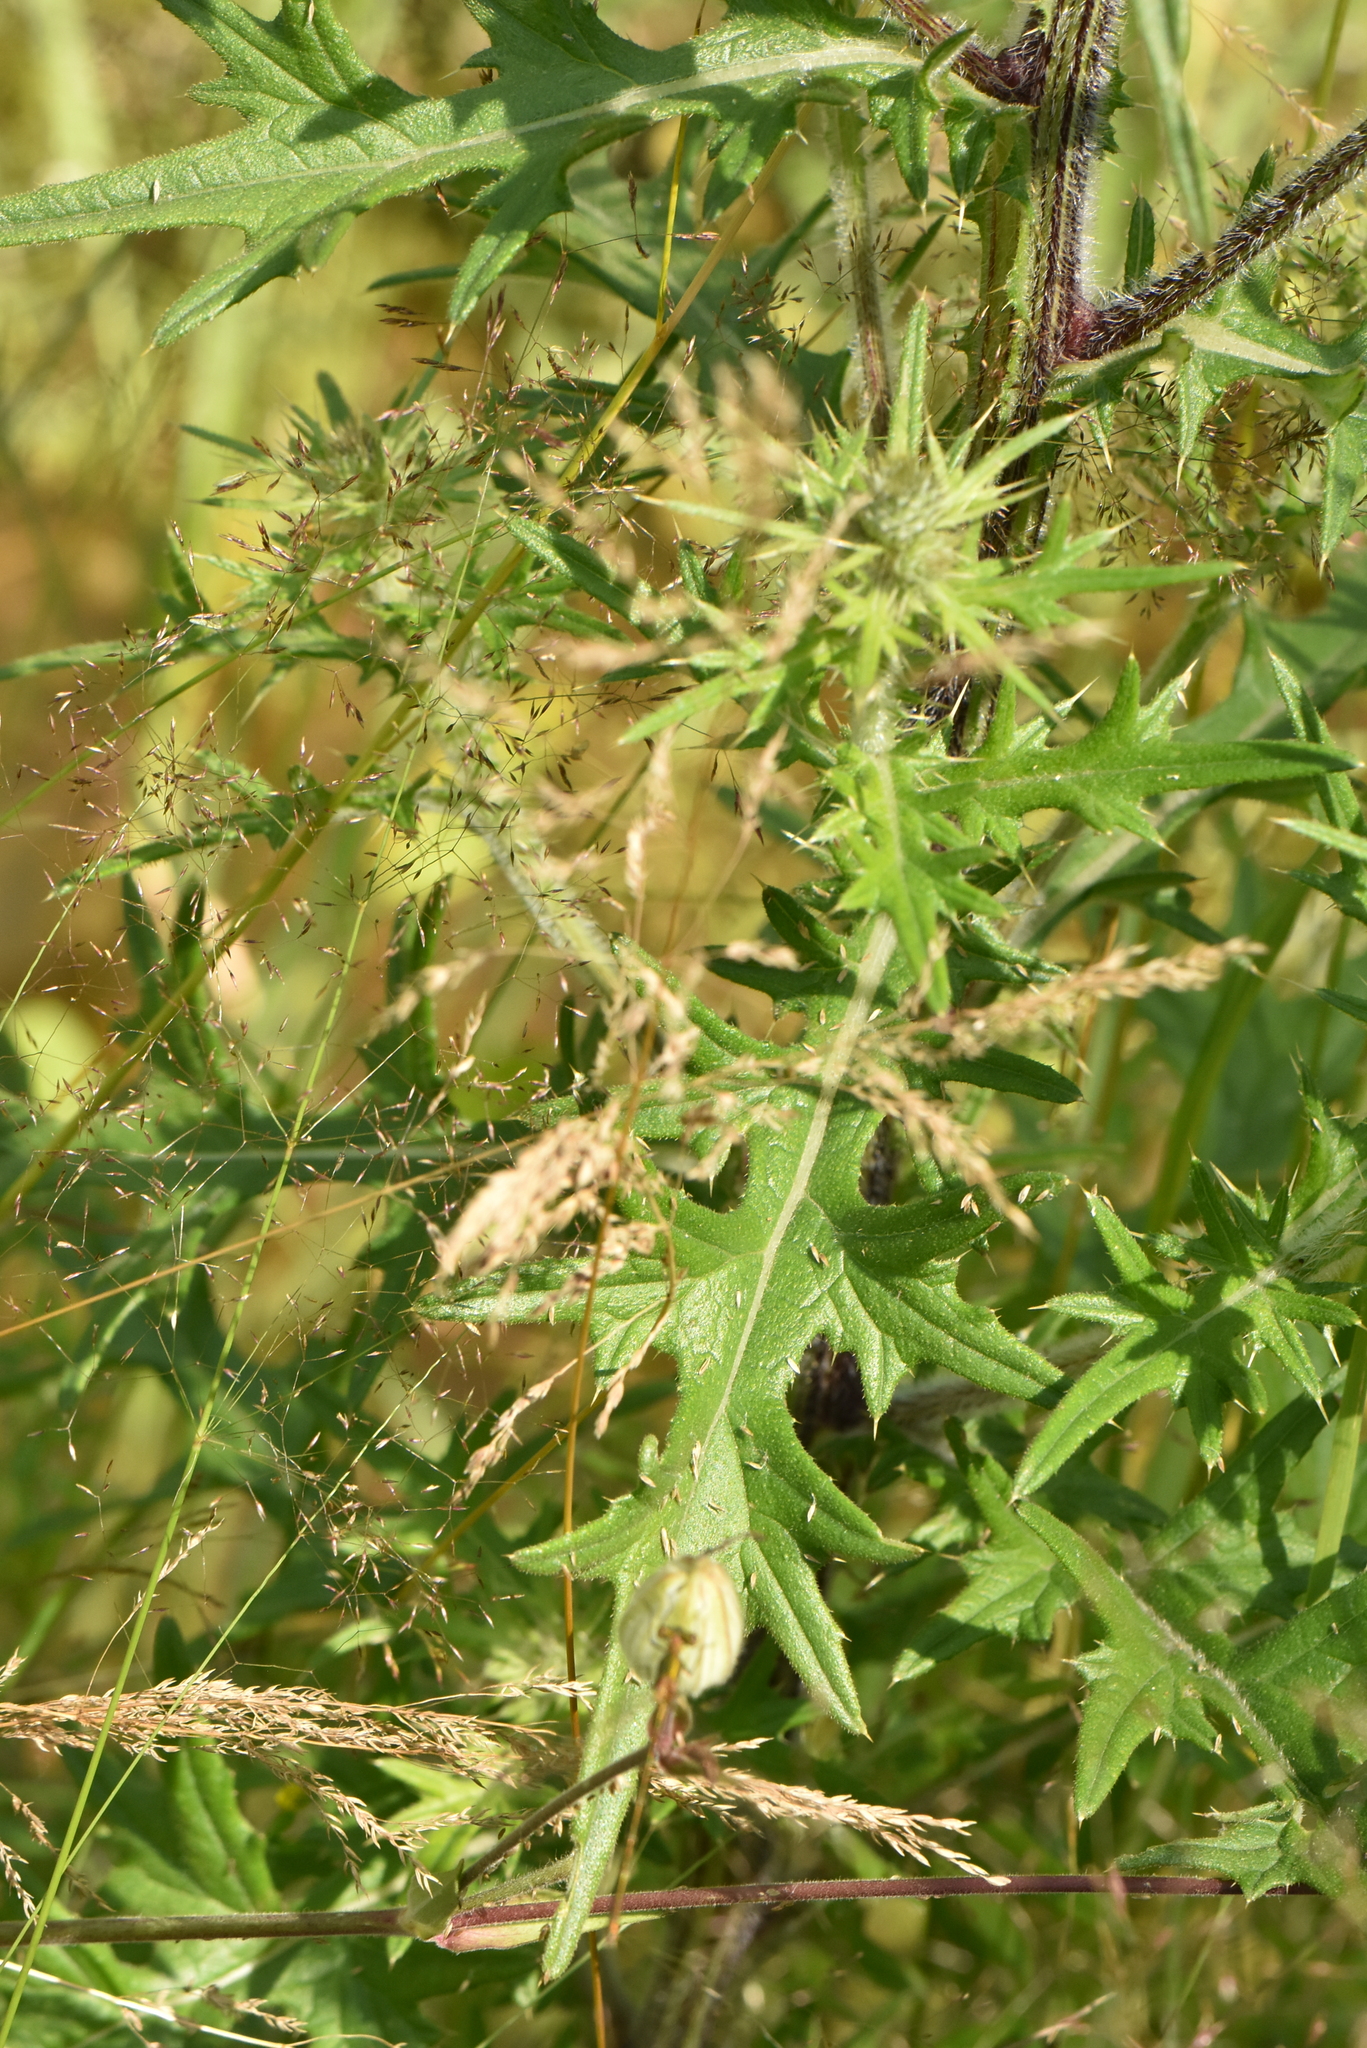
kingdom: Plantae
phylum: Tracheophyta
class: Magnoliopsida
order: Asterales
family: Asteraceae
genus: Cirsium
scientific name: Cirsium vulgare
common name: Bull thistle
